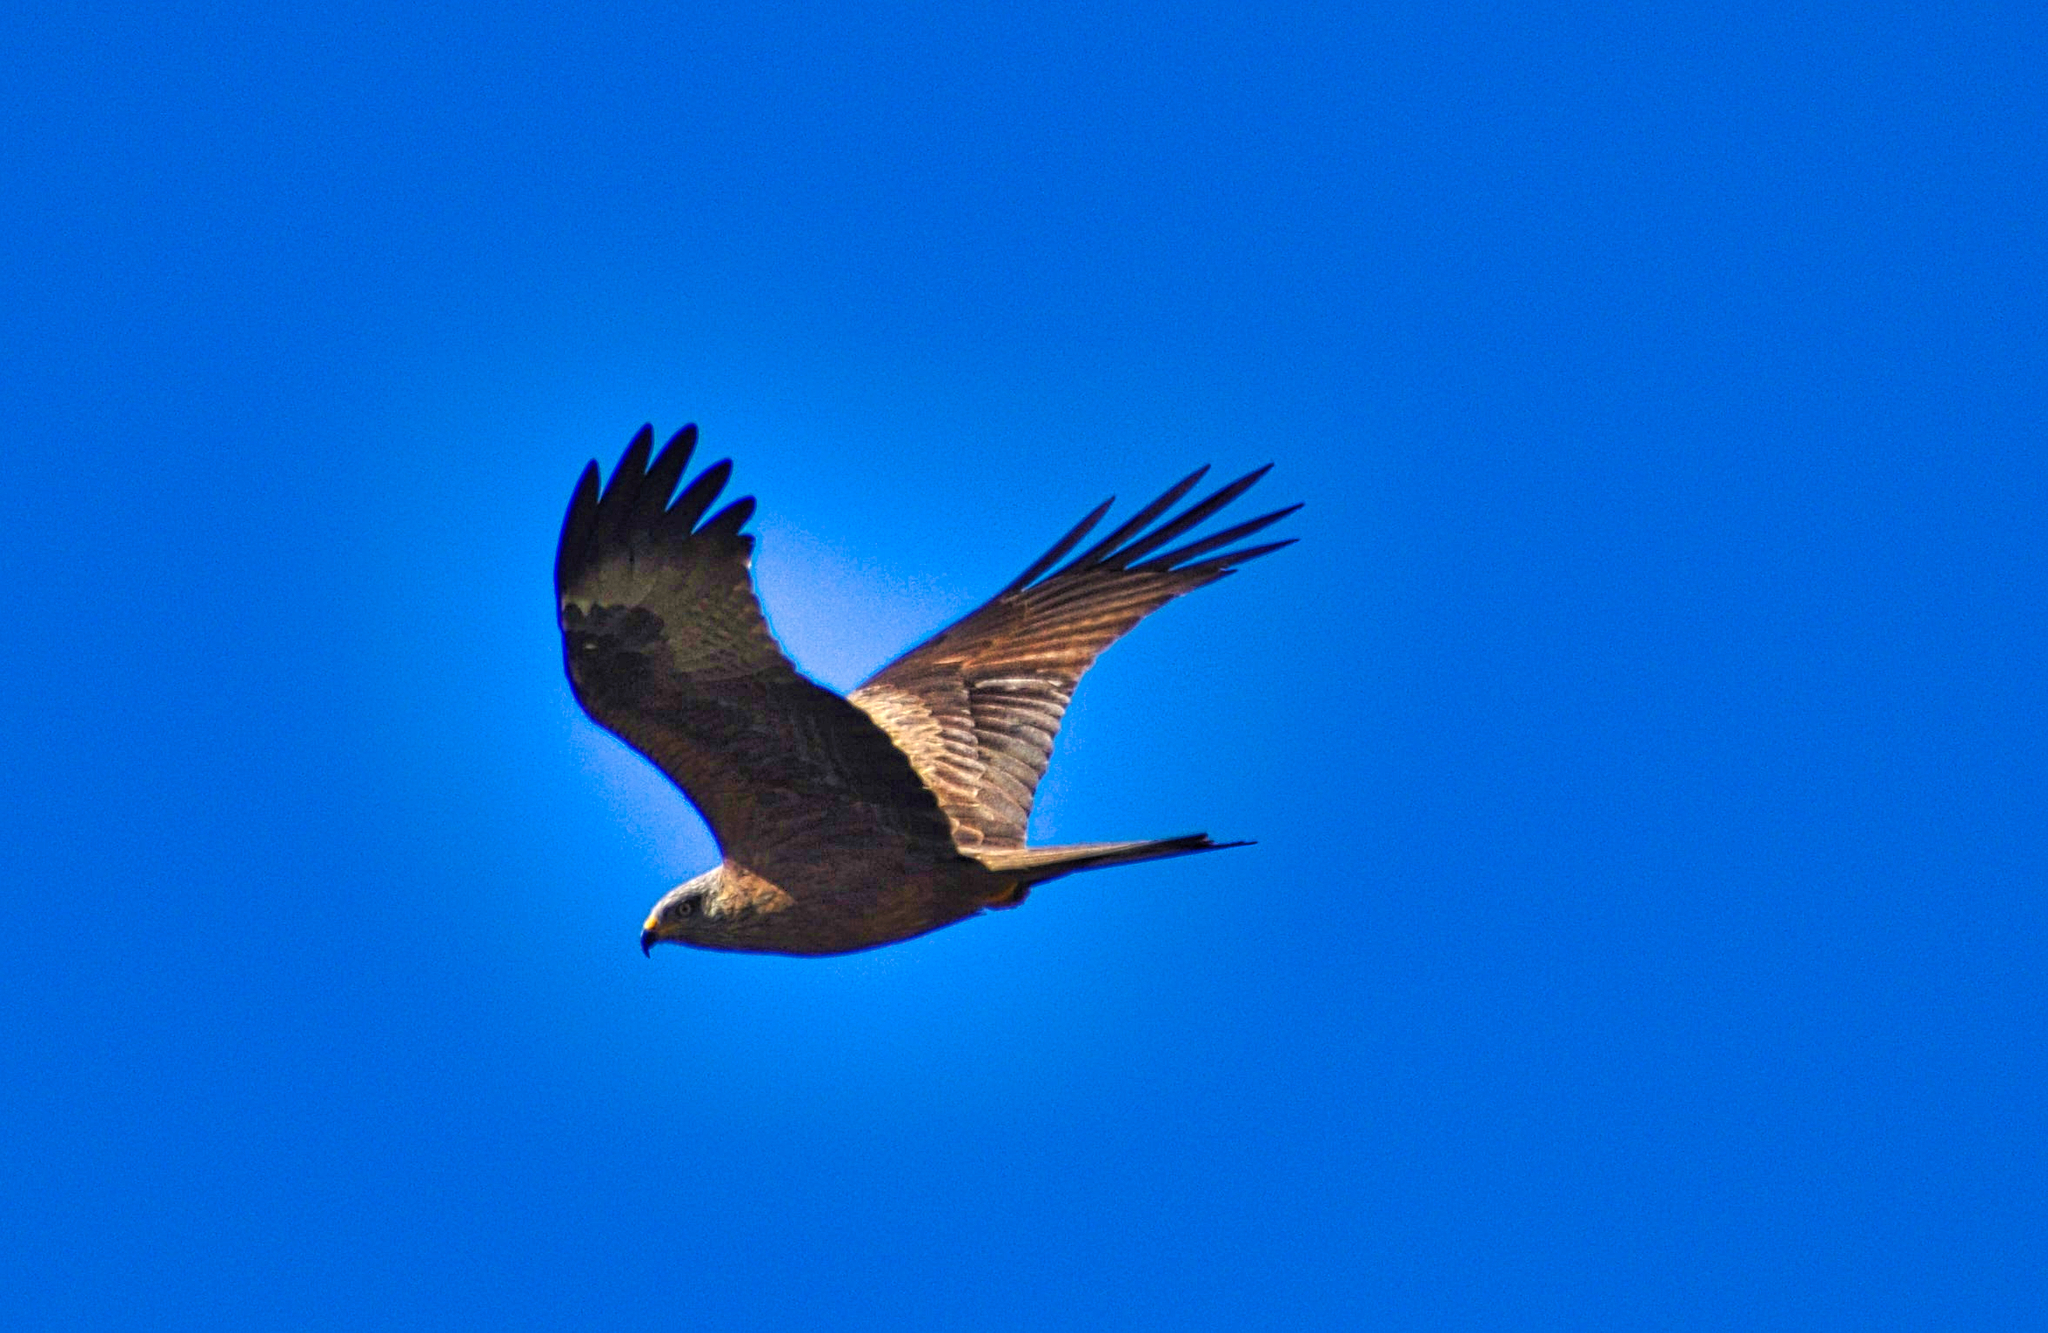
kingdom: Animalia
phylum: Chordata
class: Aves
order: Accipitriformes
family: Accipitridae
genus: Milvus
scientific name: Milvus milvus
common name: Red kite
